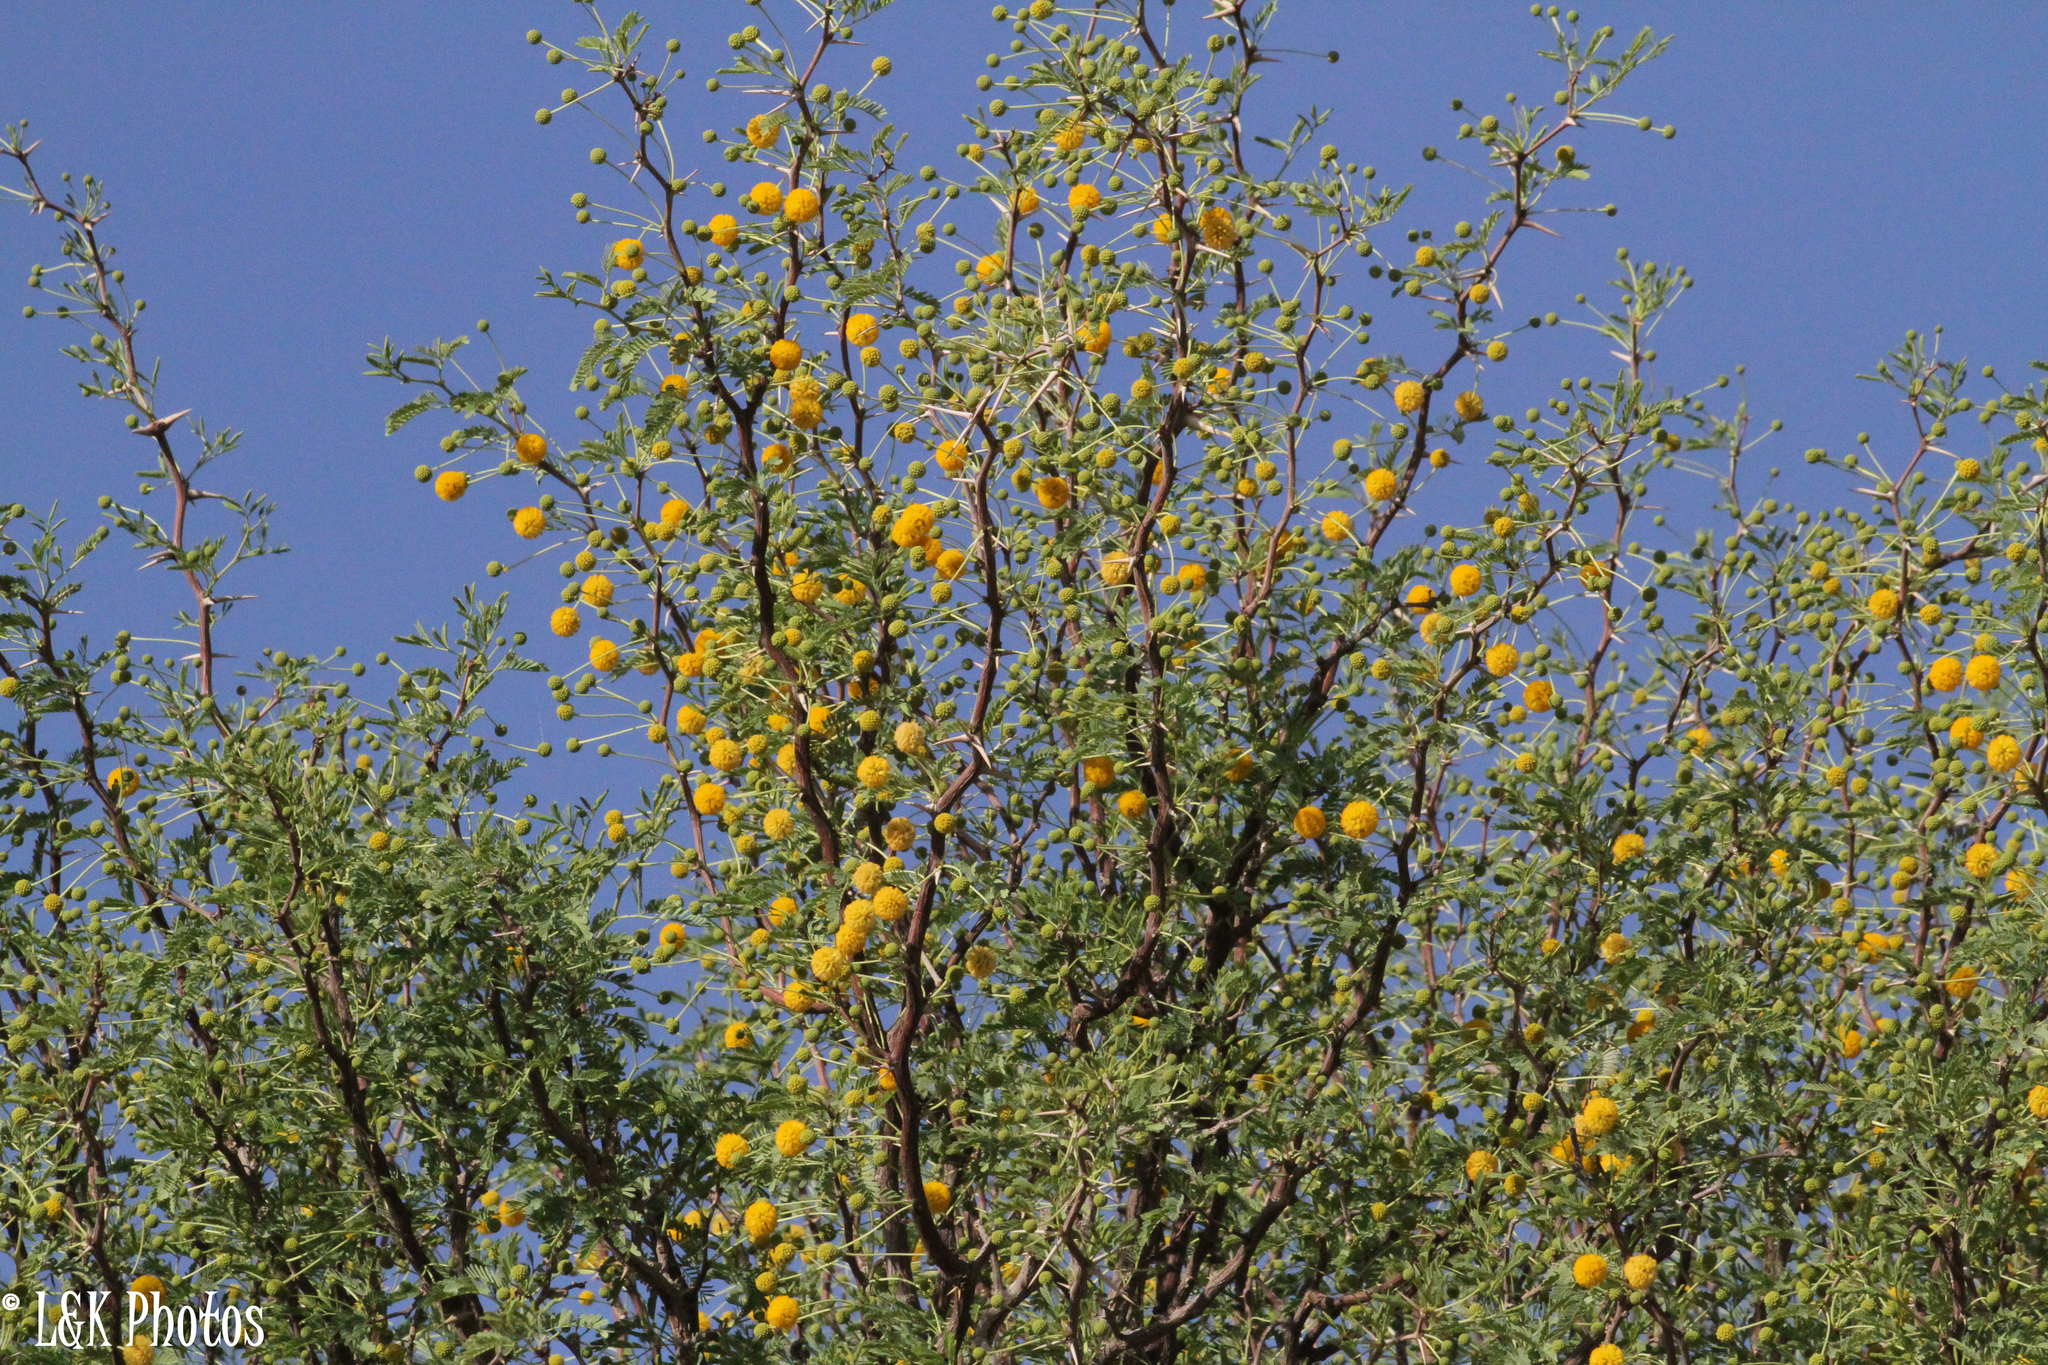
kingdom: Plantae
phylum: Tracheophyta
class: Magnoliopsida
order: Fabales
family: Fabaceae
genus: Vachellia
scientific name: Vachellia erioloba
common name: Camel thorn
